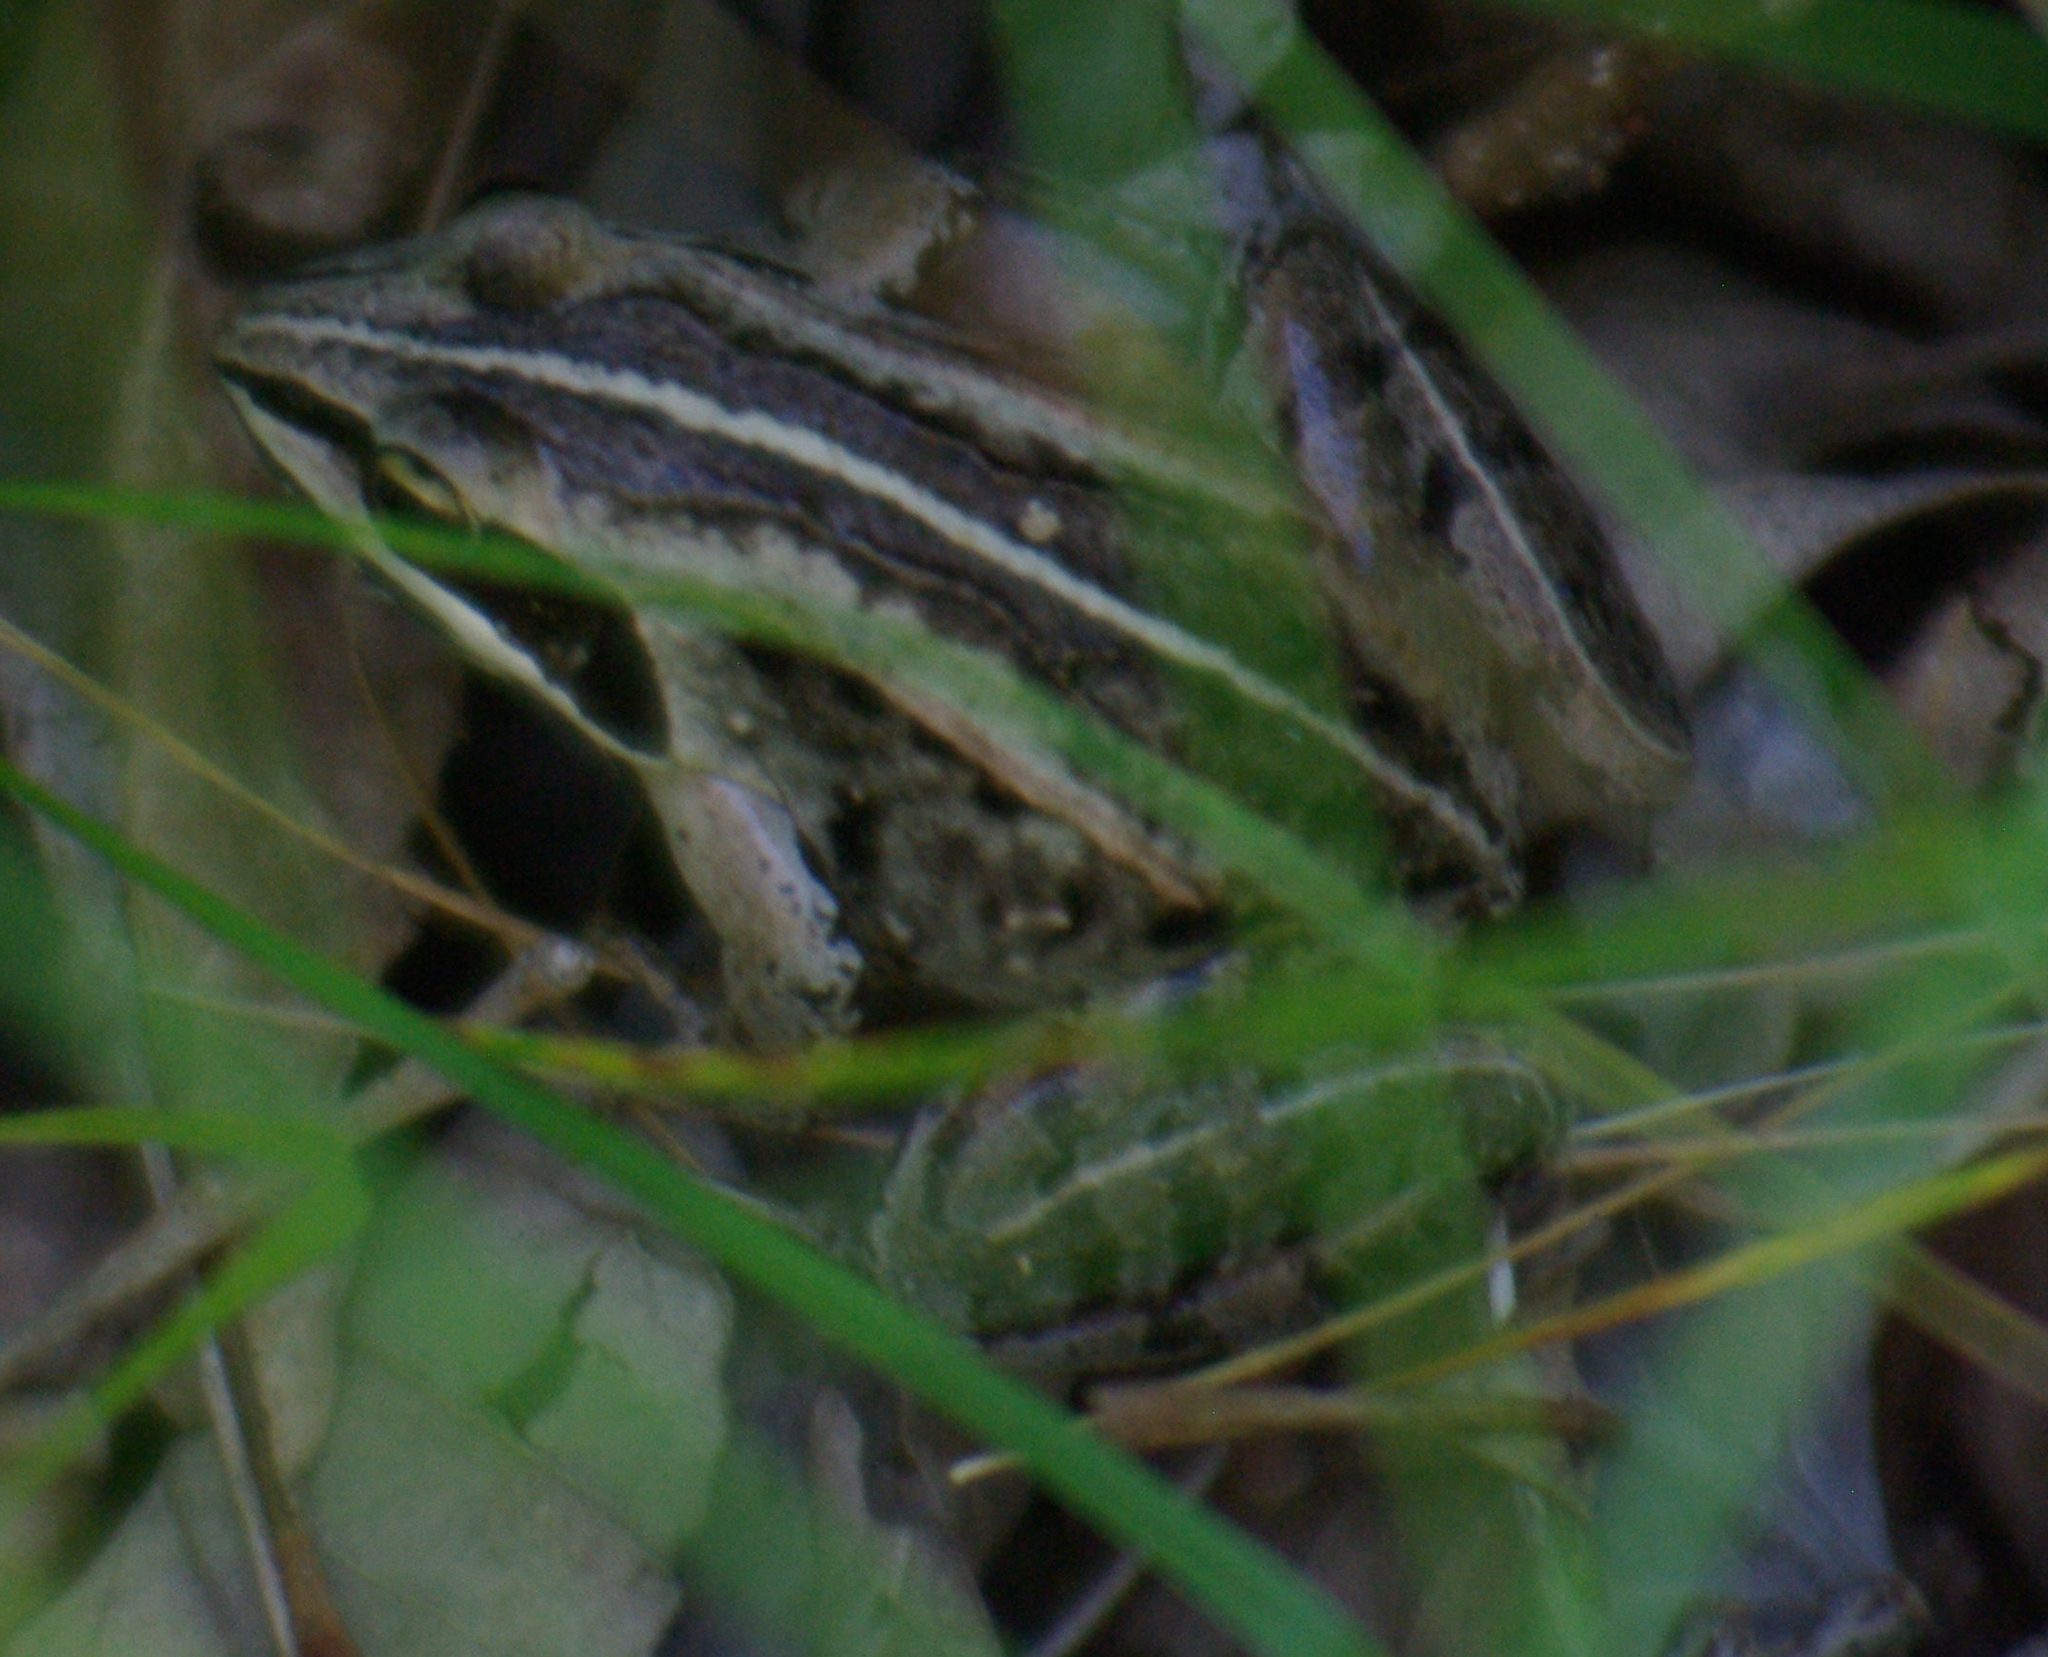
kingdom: Animalia
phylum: Chordata
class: Amphibia
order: Anura
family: Ranidae
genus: Lithobates
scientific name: Lithobates sylvaticus
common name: Wood frog
